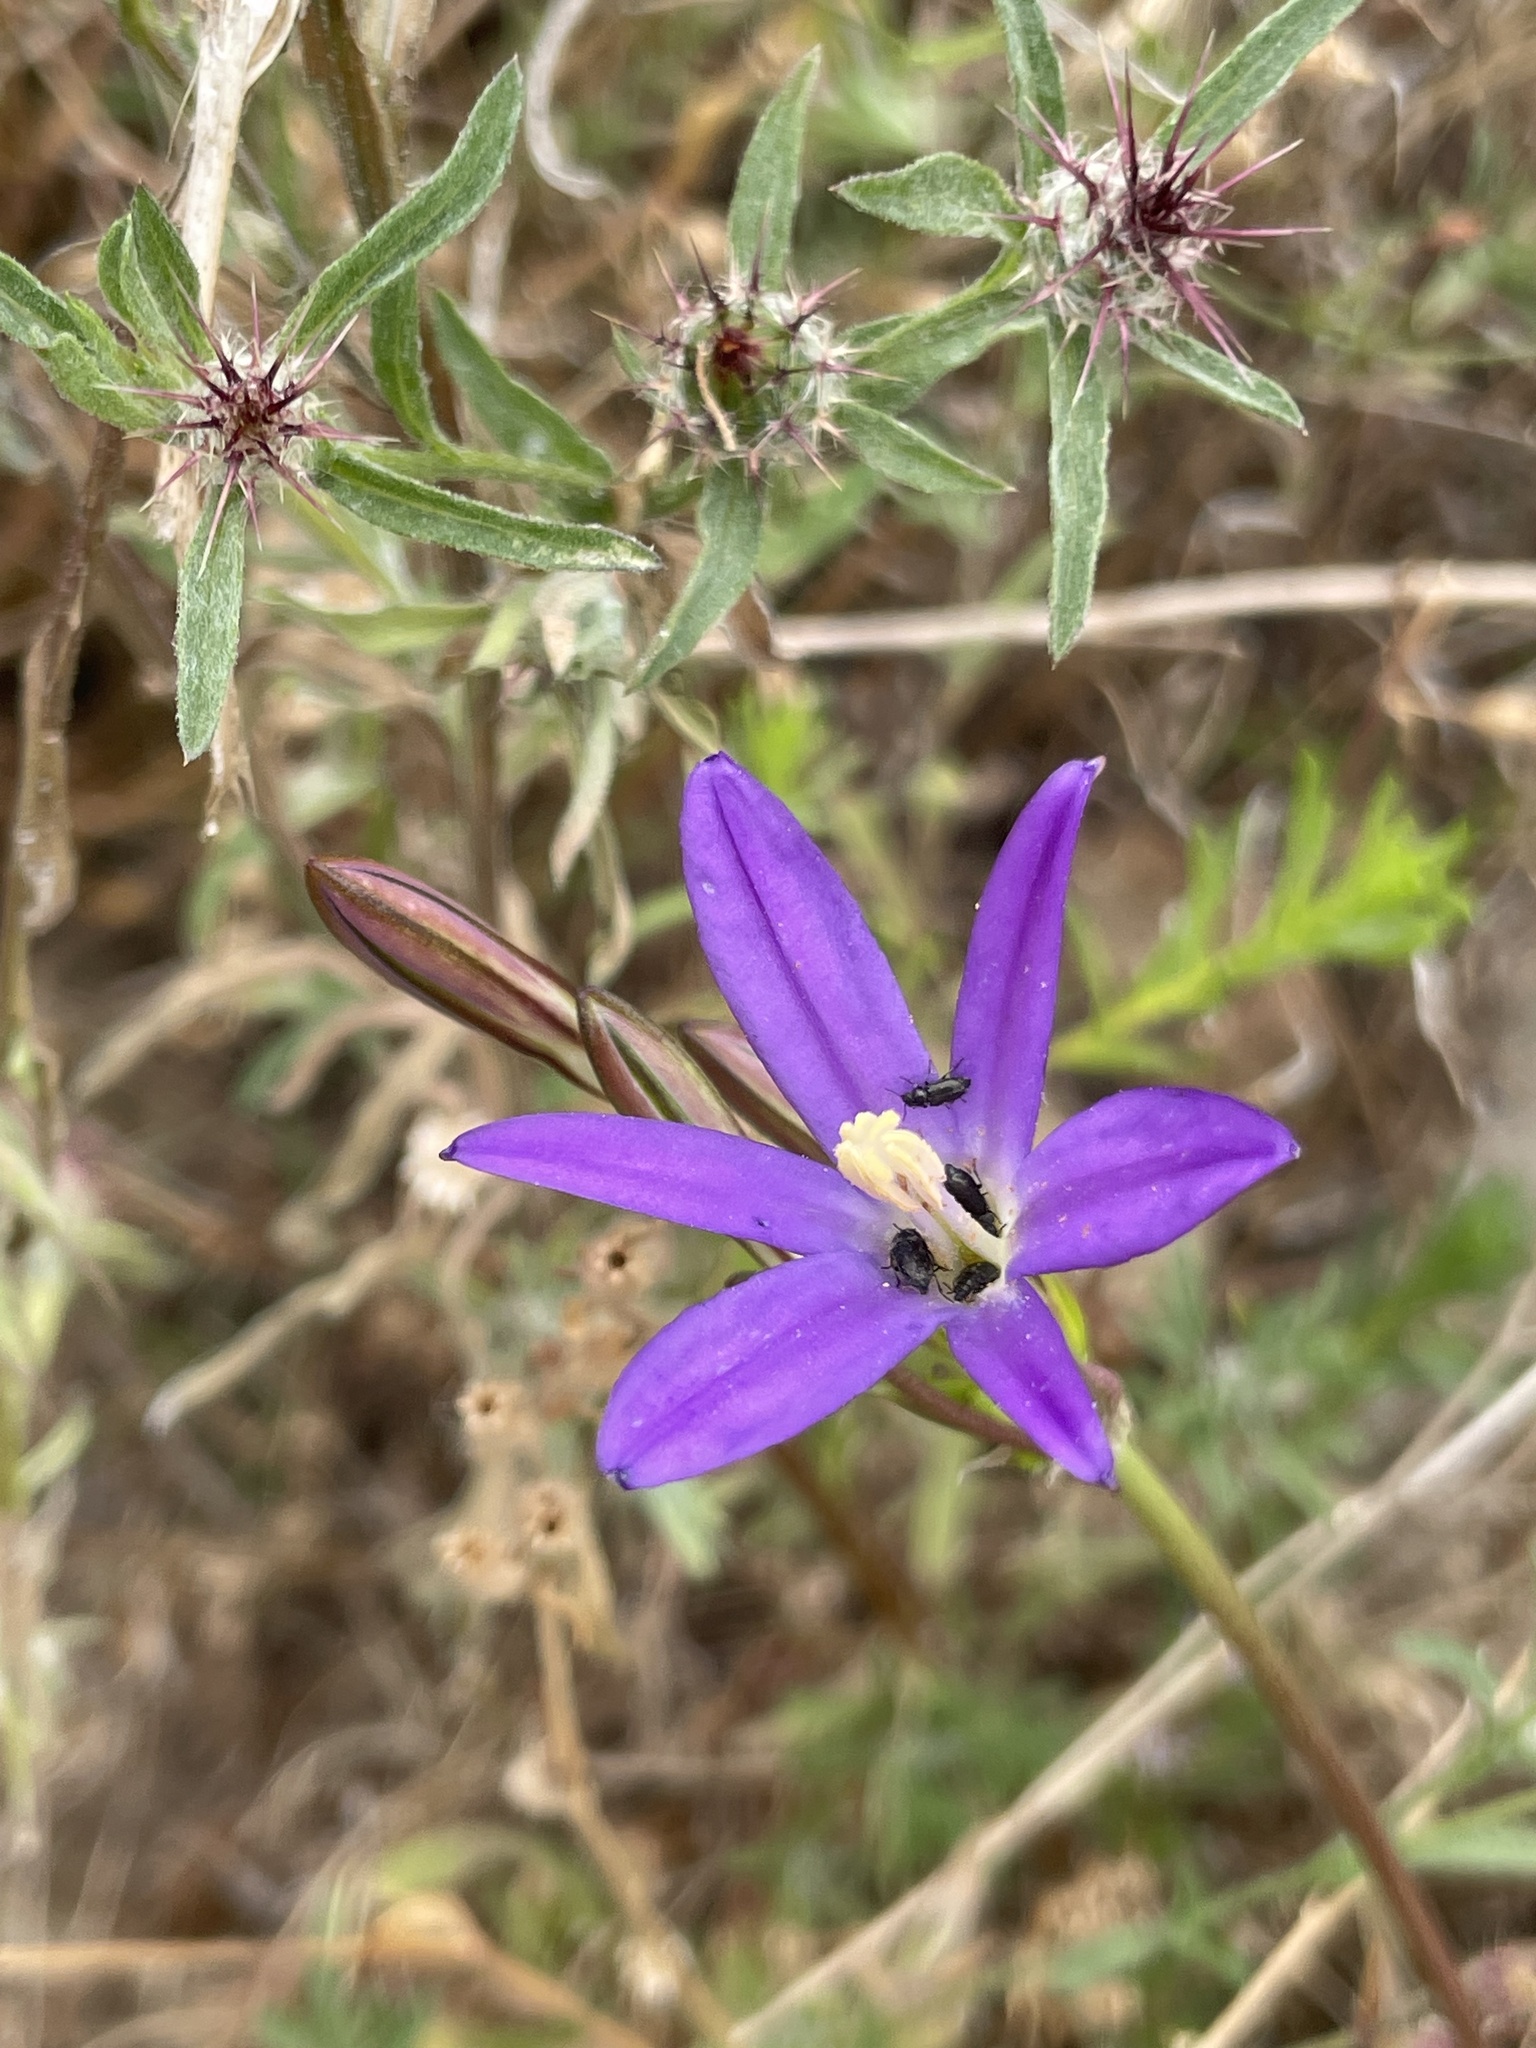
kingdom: Plantae
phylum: Tracheophyta
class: Liliopsida
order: Asparagales
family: Asparagaceae
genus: Brodiaea
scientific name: Brodiaea orcuttii
